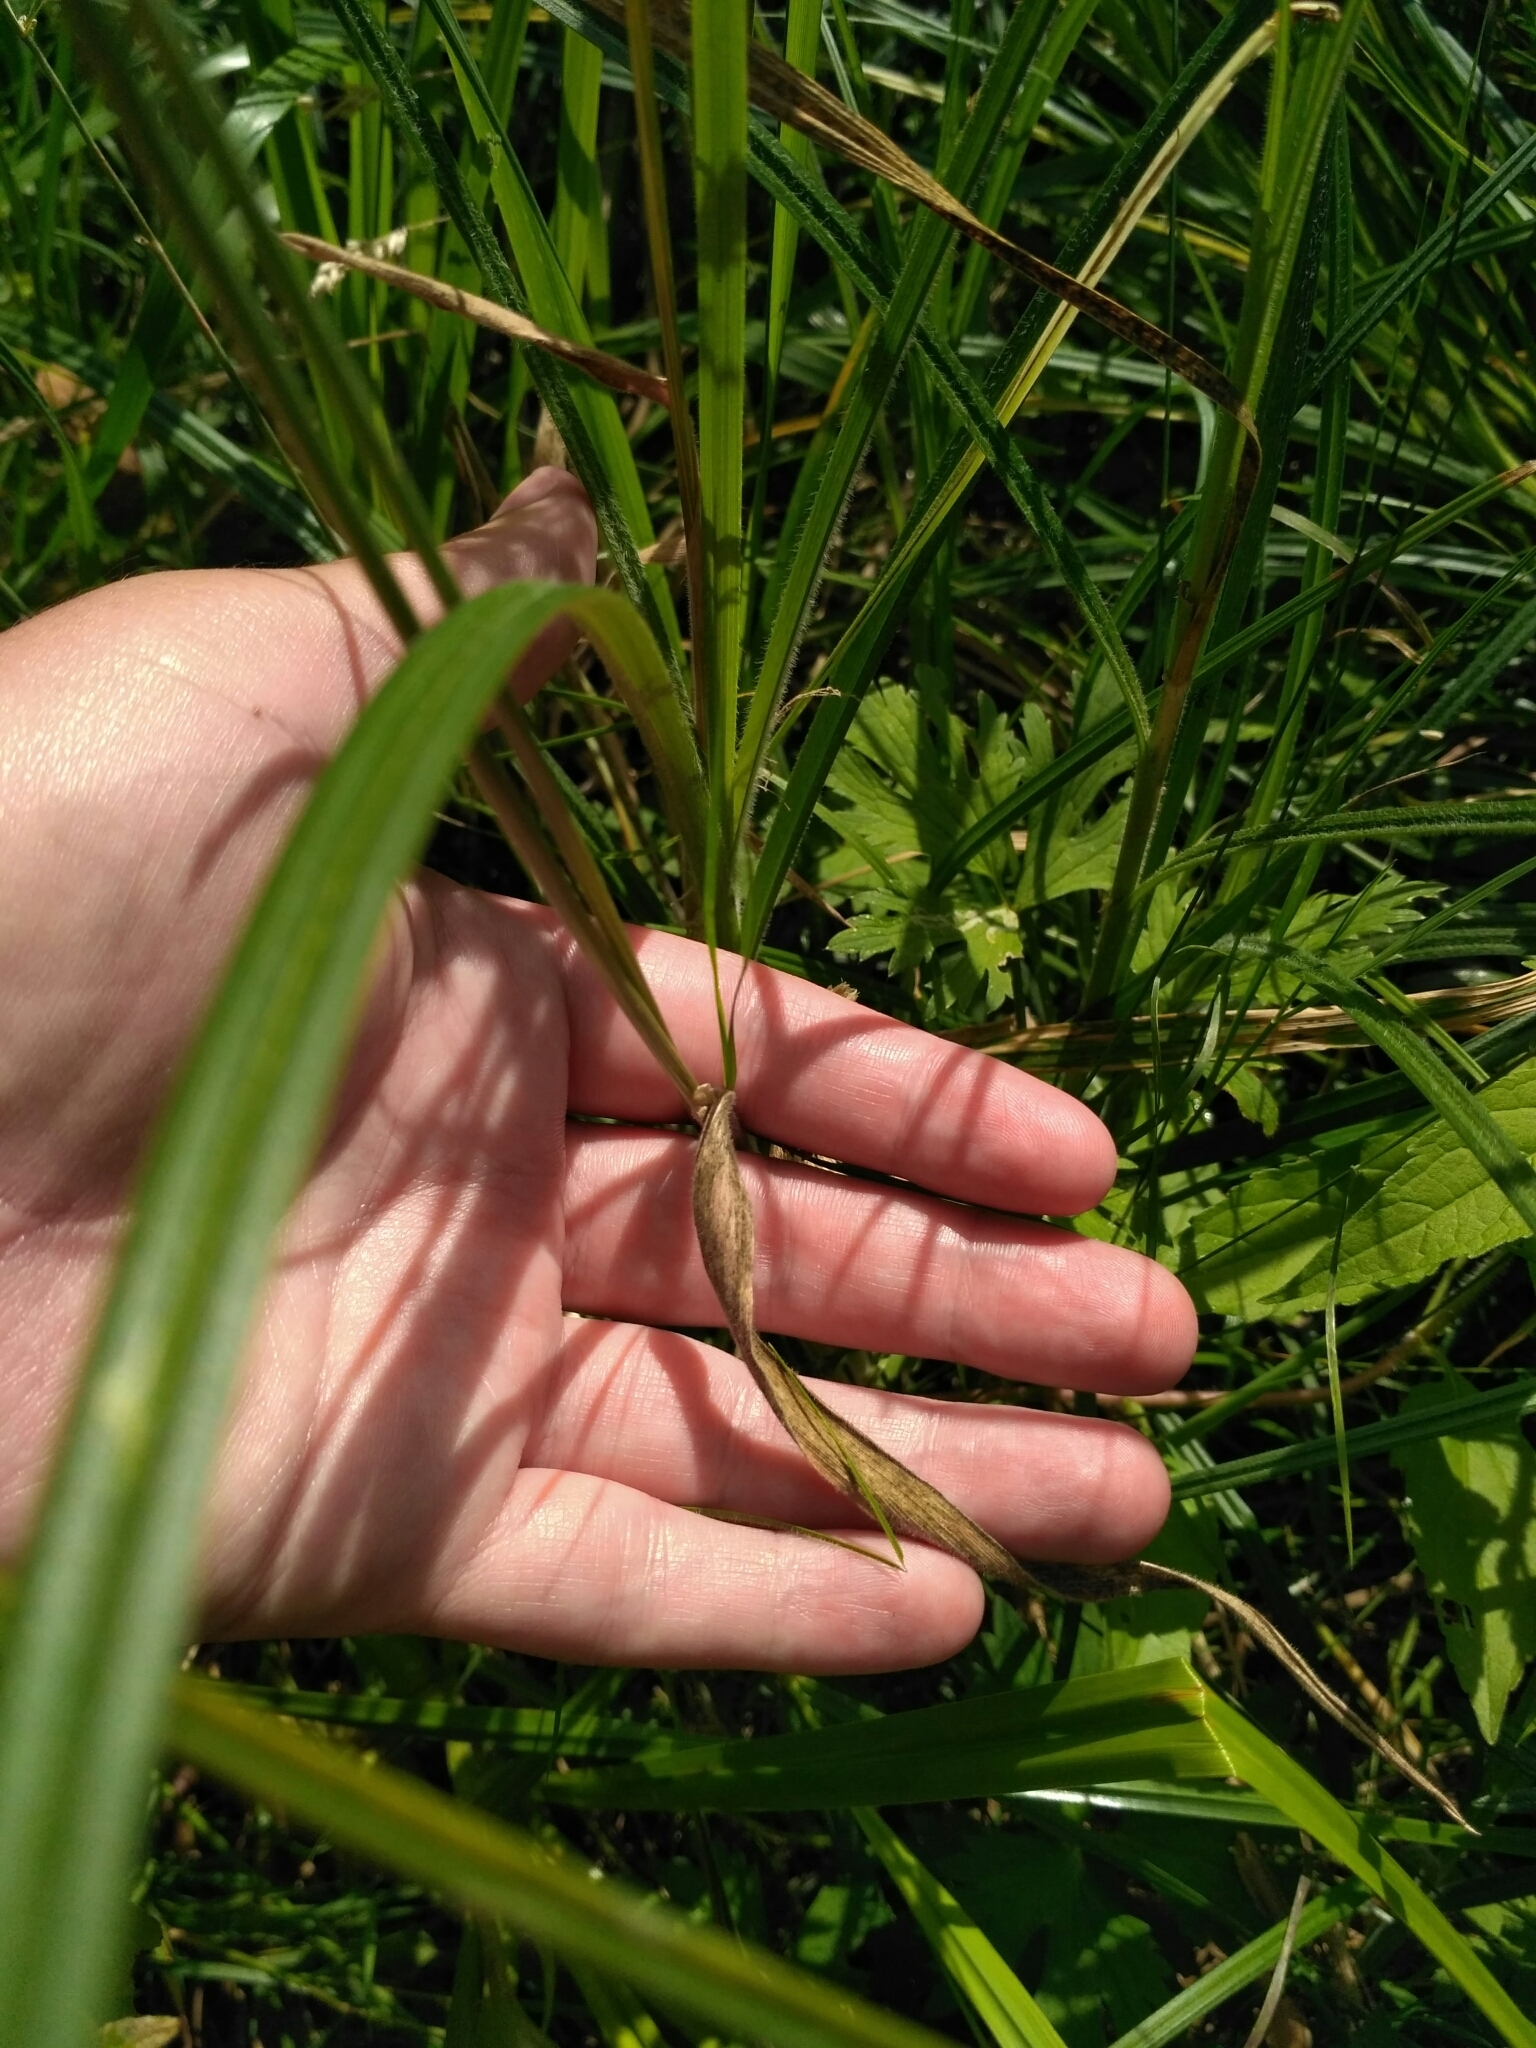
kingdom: Plantae
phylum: Tracheophyta
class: Liliopsida
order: Poales
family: Poaceae
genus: Holcus
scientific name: Holcus lanatus
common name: Yorkshire-fog
